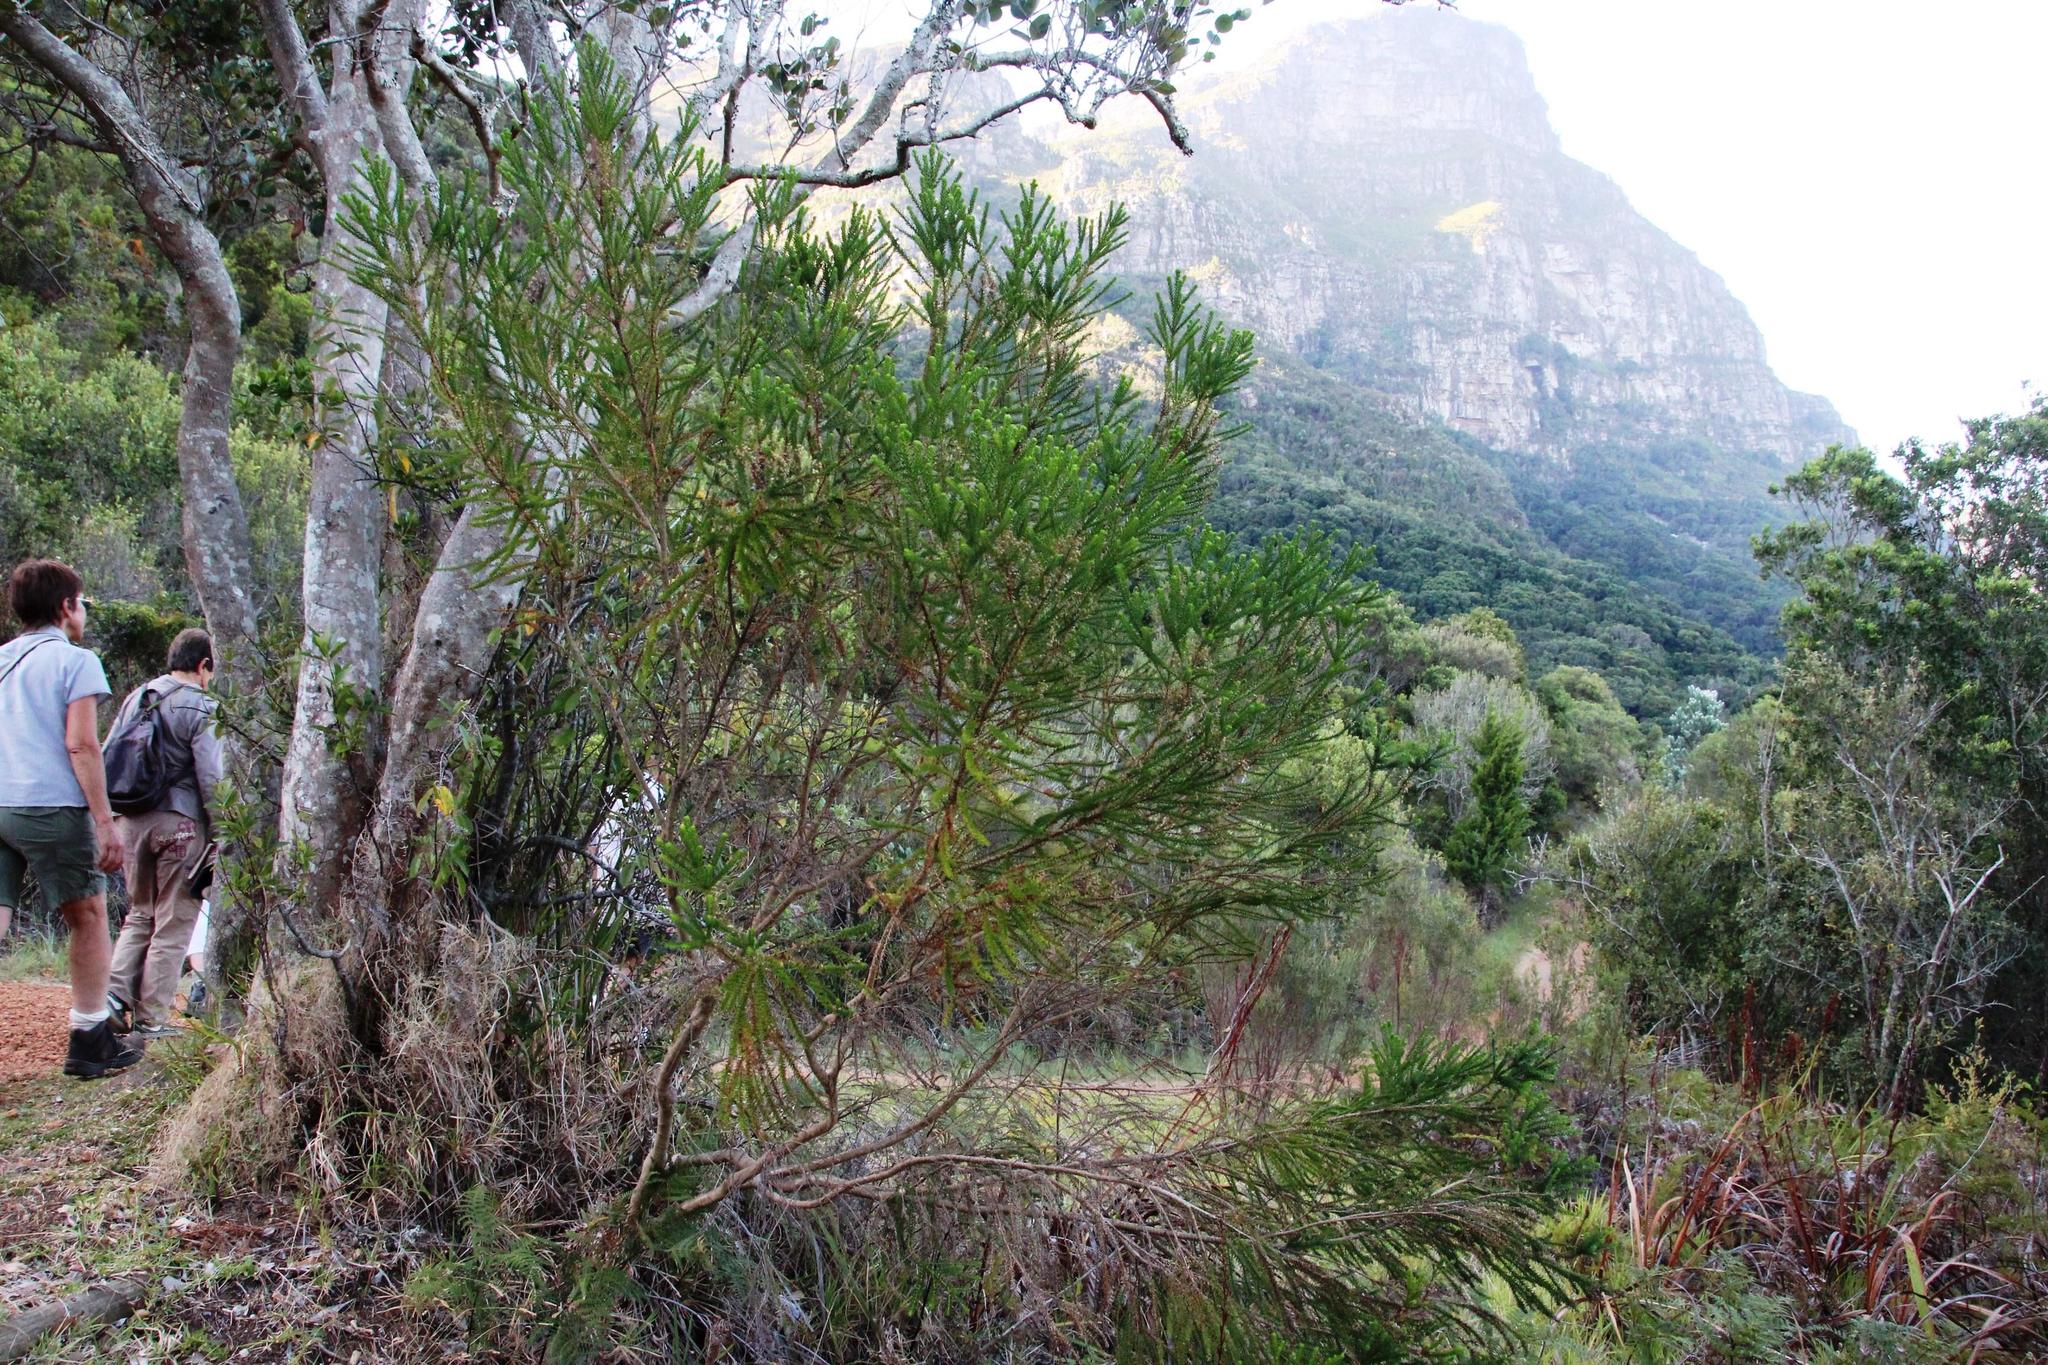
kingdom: Plantae
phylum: Tracheophyta
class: Magnoliopsida
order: Asterales
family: Asteraceae
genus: Euryops
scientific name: Euryops virgineus
